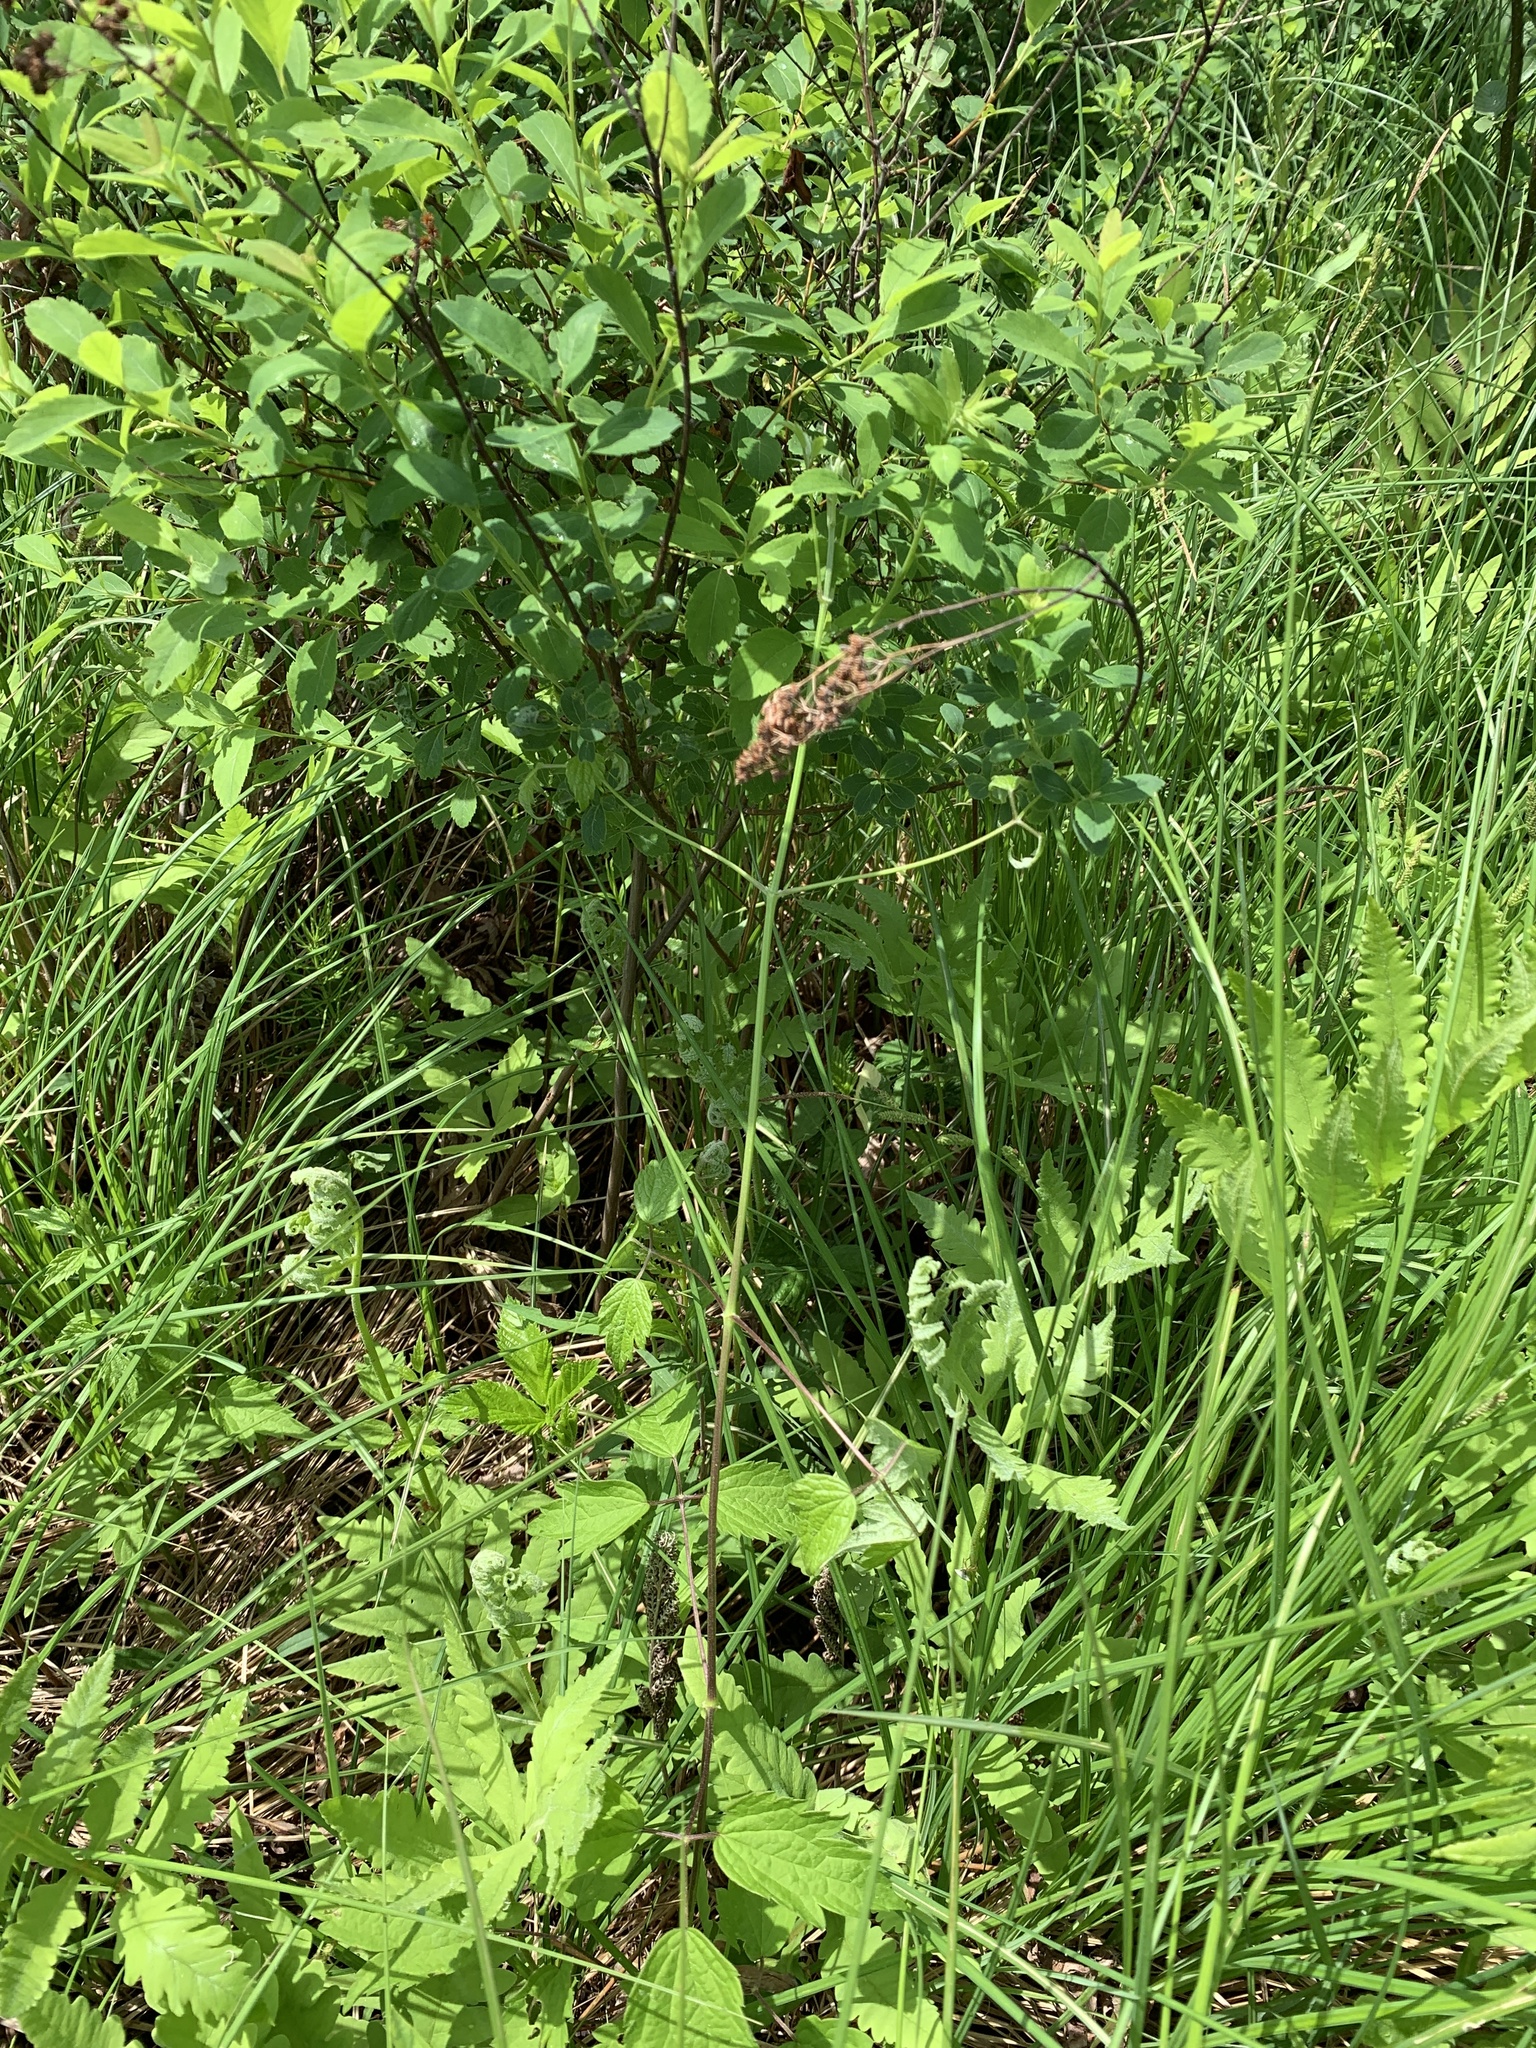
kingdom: Plantae
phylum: Tracheophyta
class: Magnoliopsida
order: Ranunculales
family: Ranunculaceae
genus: Clematis
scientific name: Clematis virginiana
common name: Virgin's-bower
